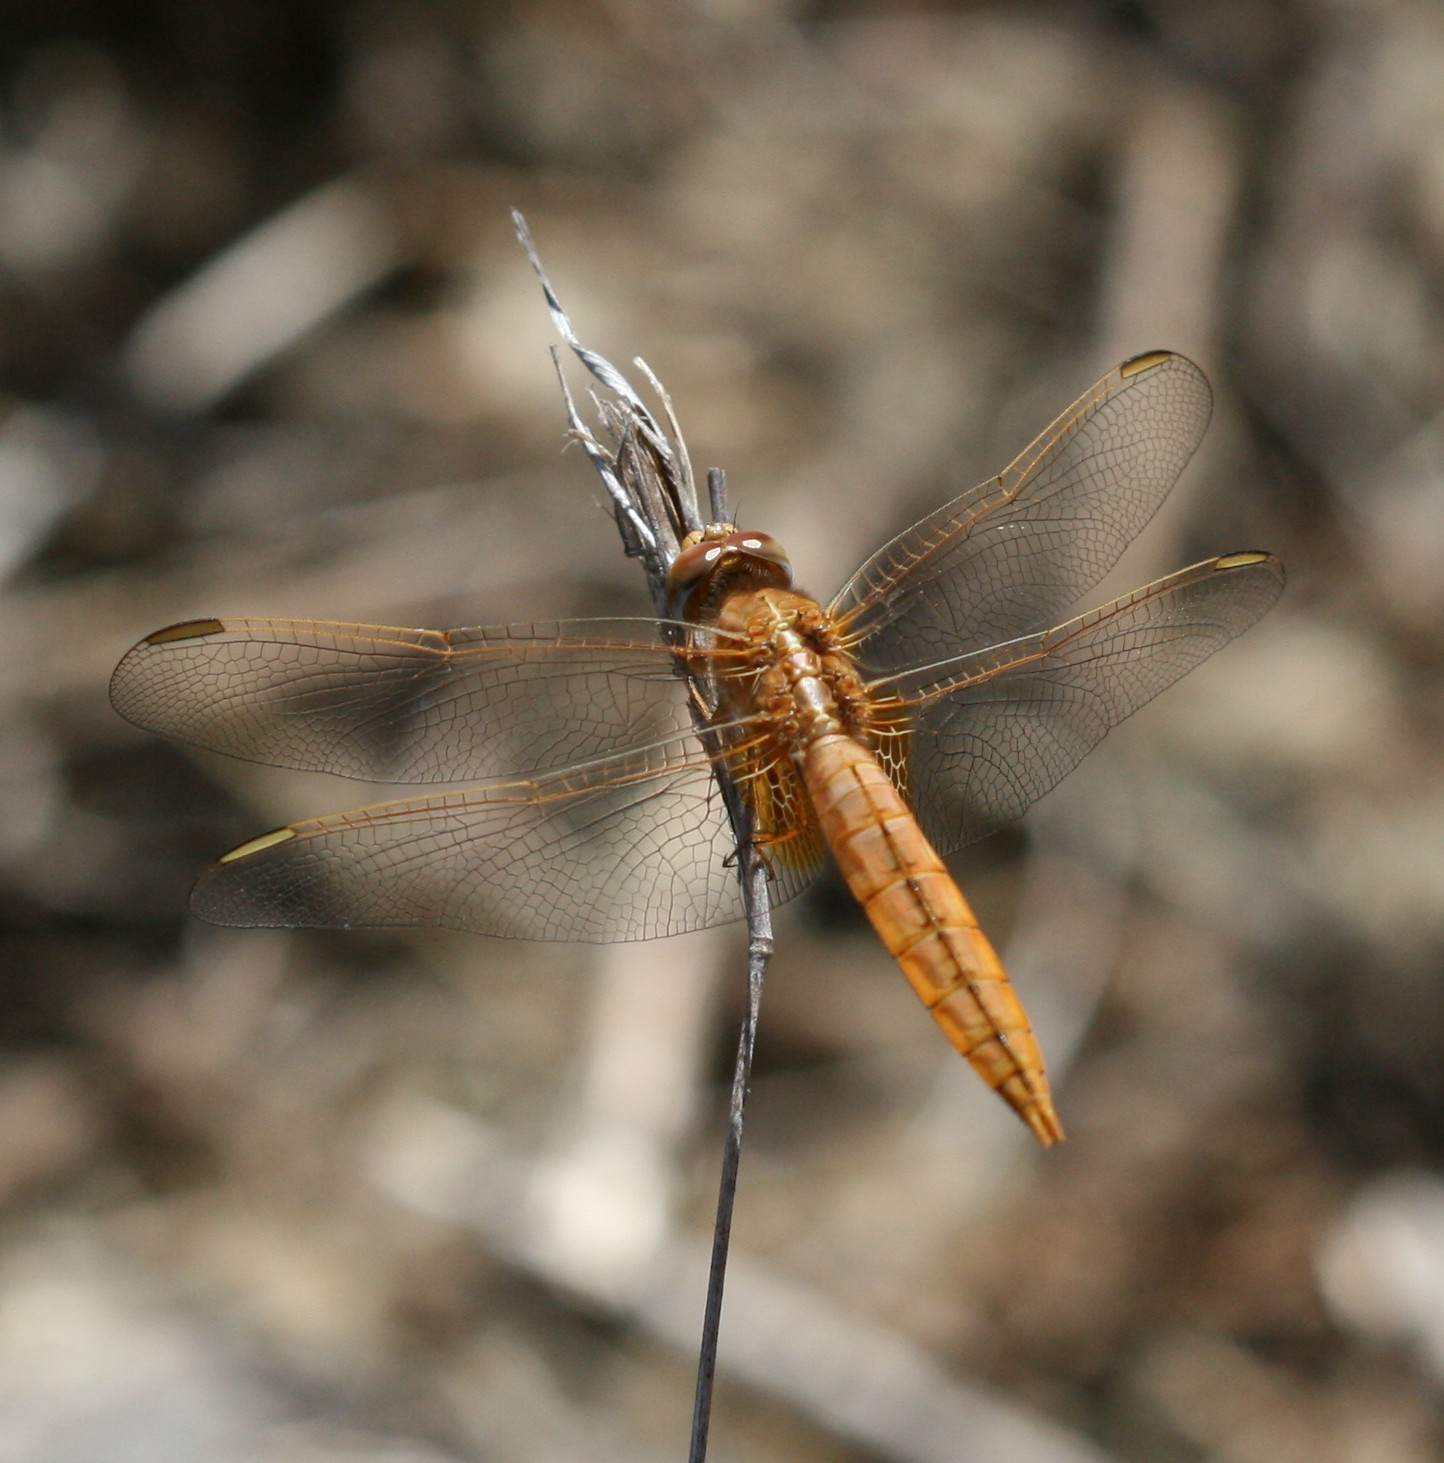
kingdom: Animalia
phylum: Arthropoda
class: Insecta
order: Odonata
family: Libellulidae
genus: Crocothemis
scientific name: Crocothemis erythraea
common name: Scarlet dragonfly
